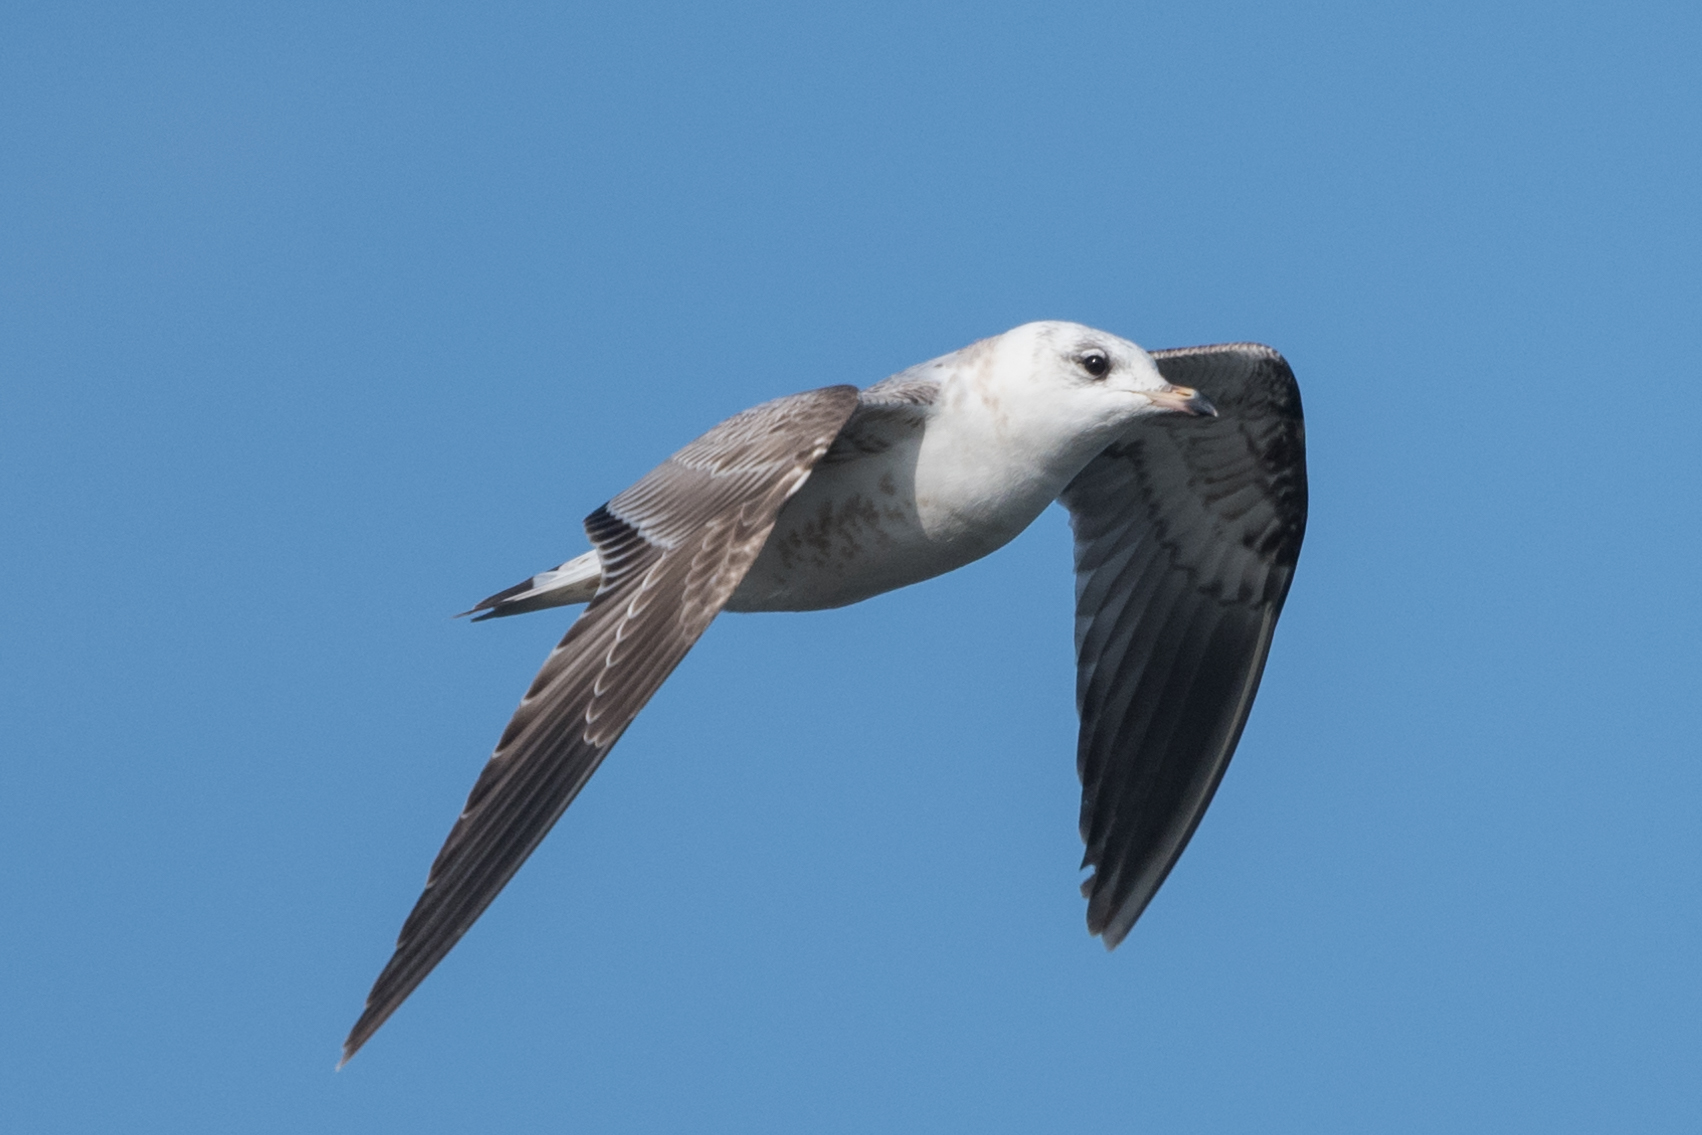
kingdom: Animalia
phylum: Chordata
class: Aves
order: Charadriiformes
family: Laridae
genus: Larus
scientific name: Larus canus
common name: Mew gull
